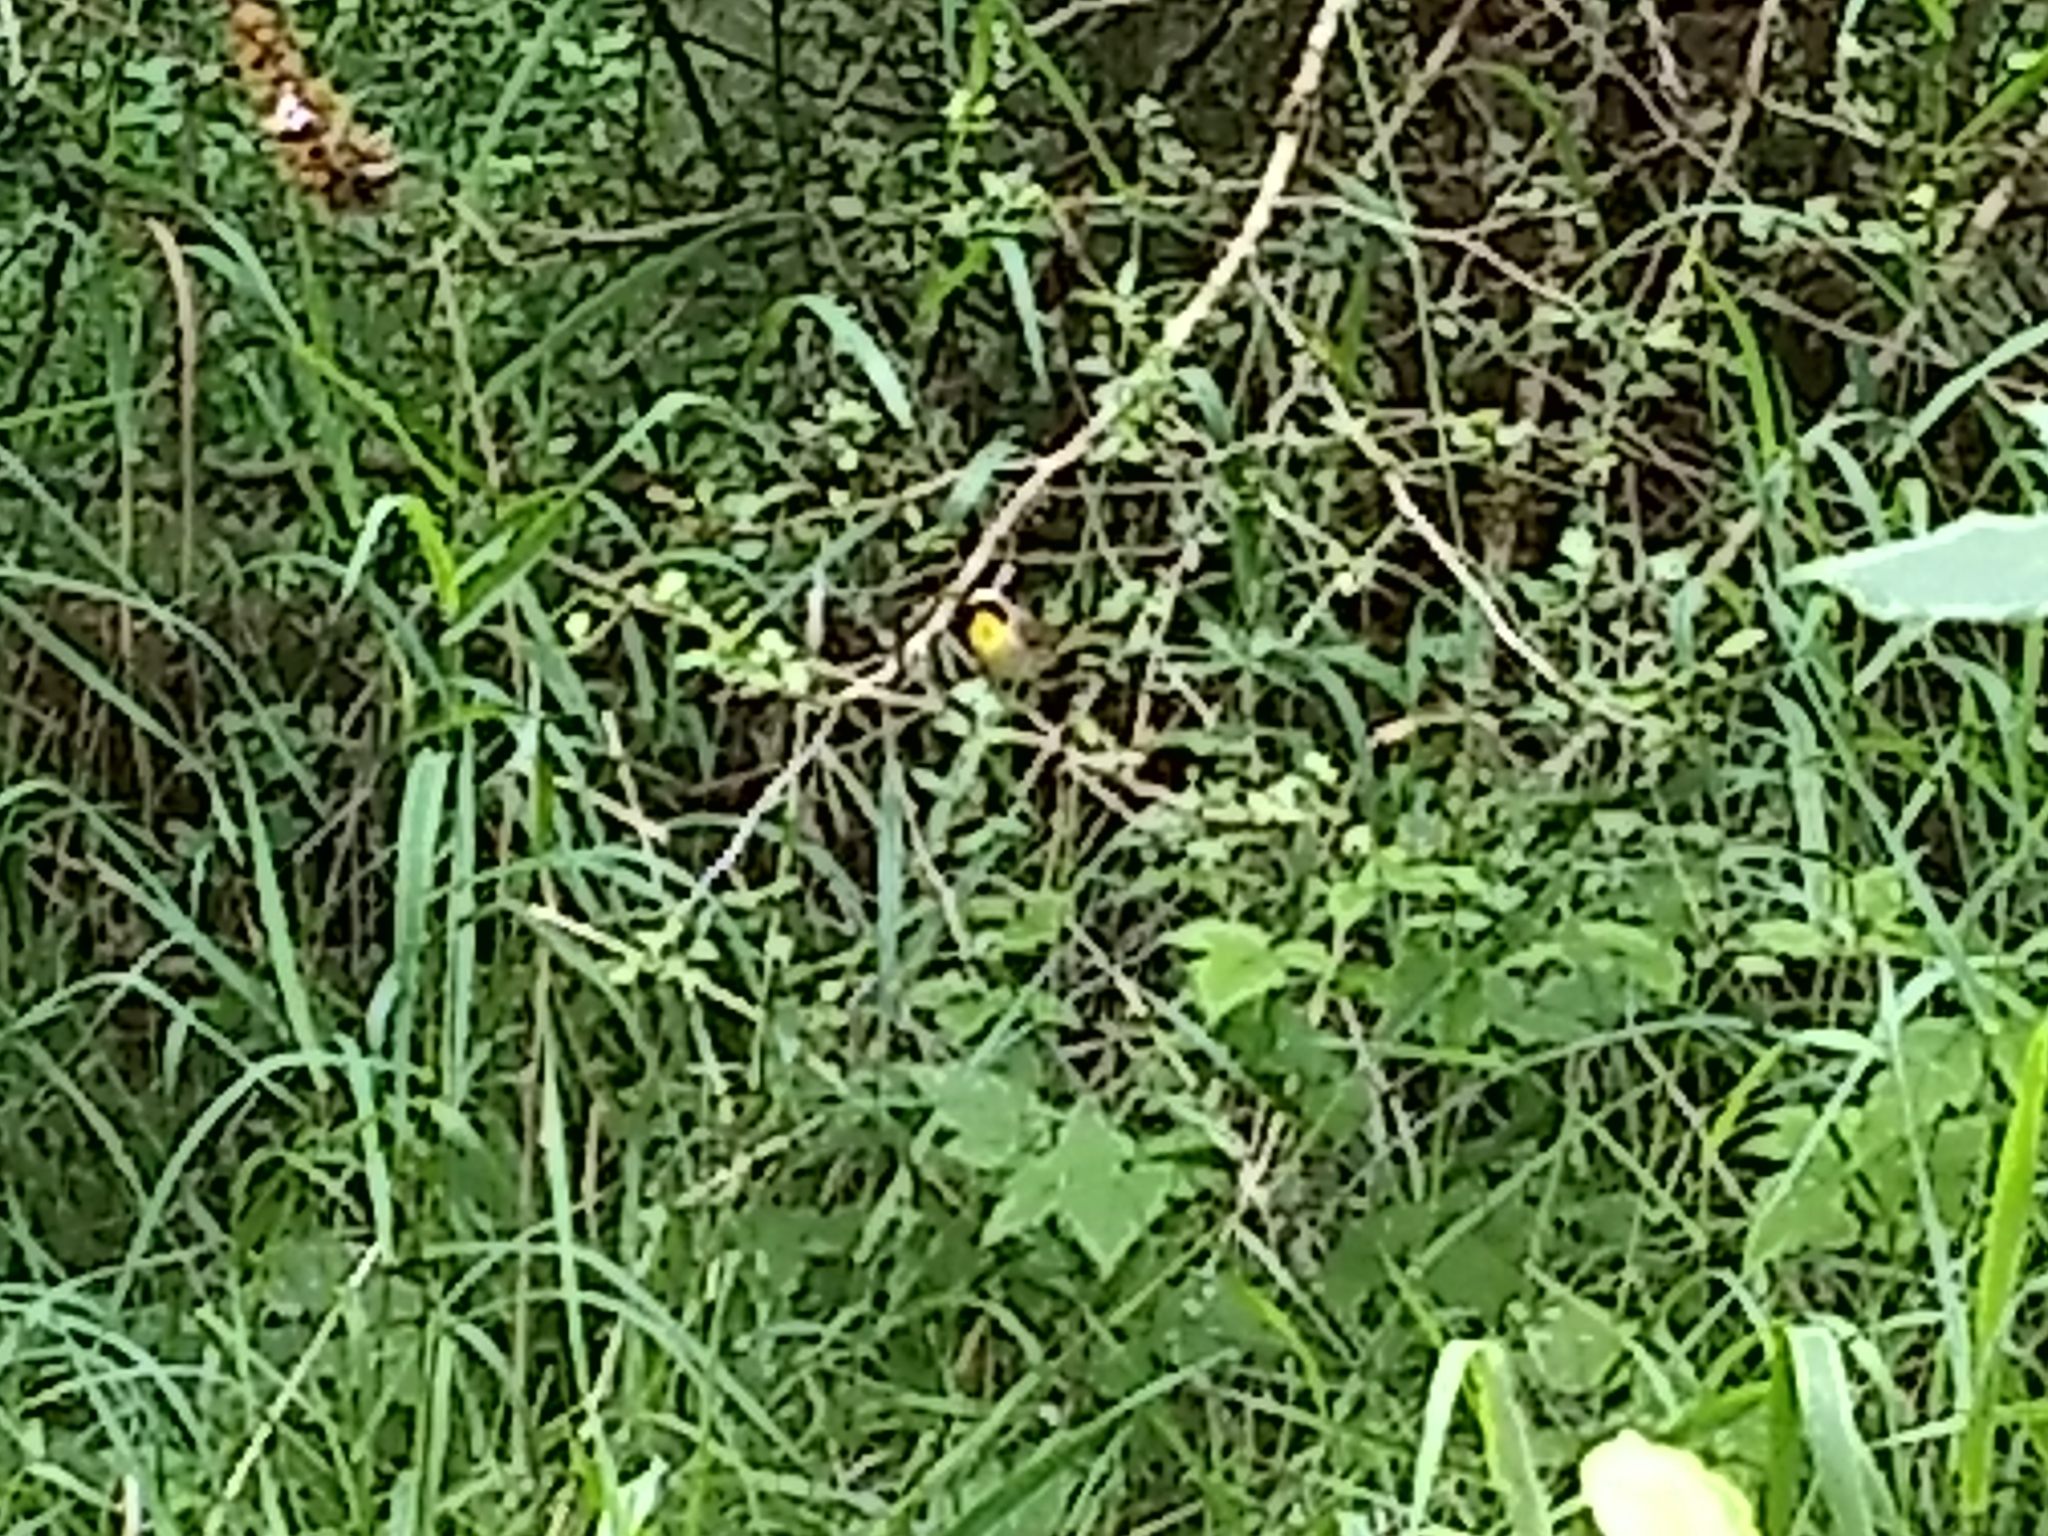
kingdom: Animalia
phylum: Chordata
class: Aves
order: Passeriformes
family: Parulidae
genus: Geothlypis
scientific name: Geothlypis trichas
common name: Common yellowthroat
